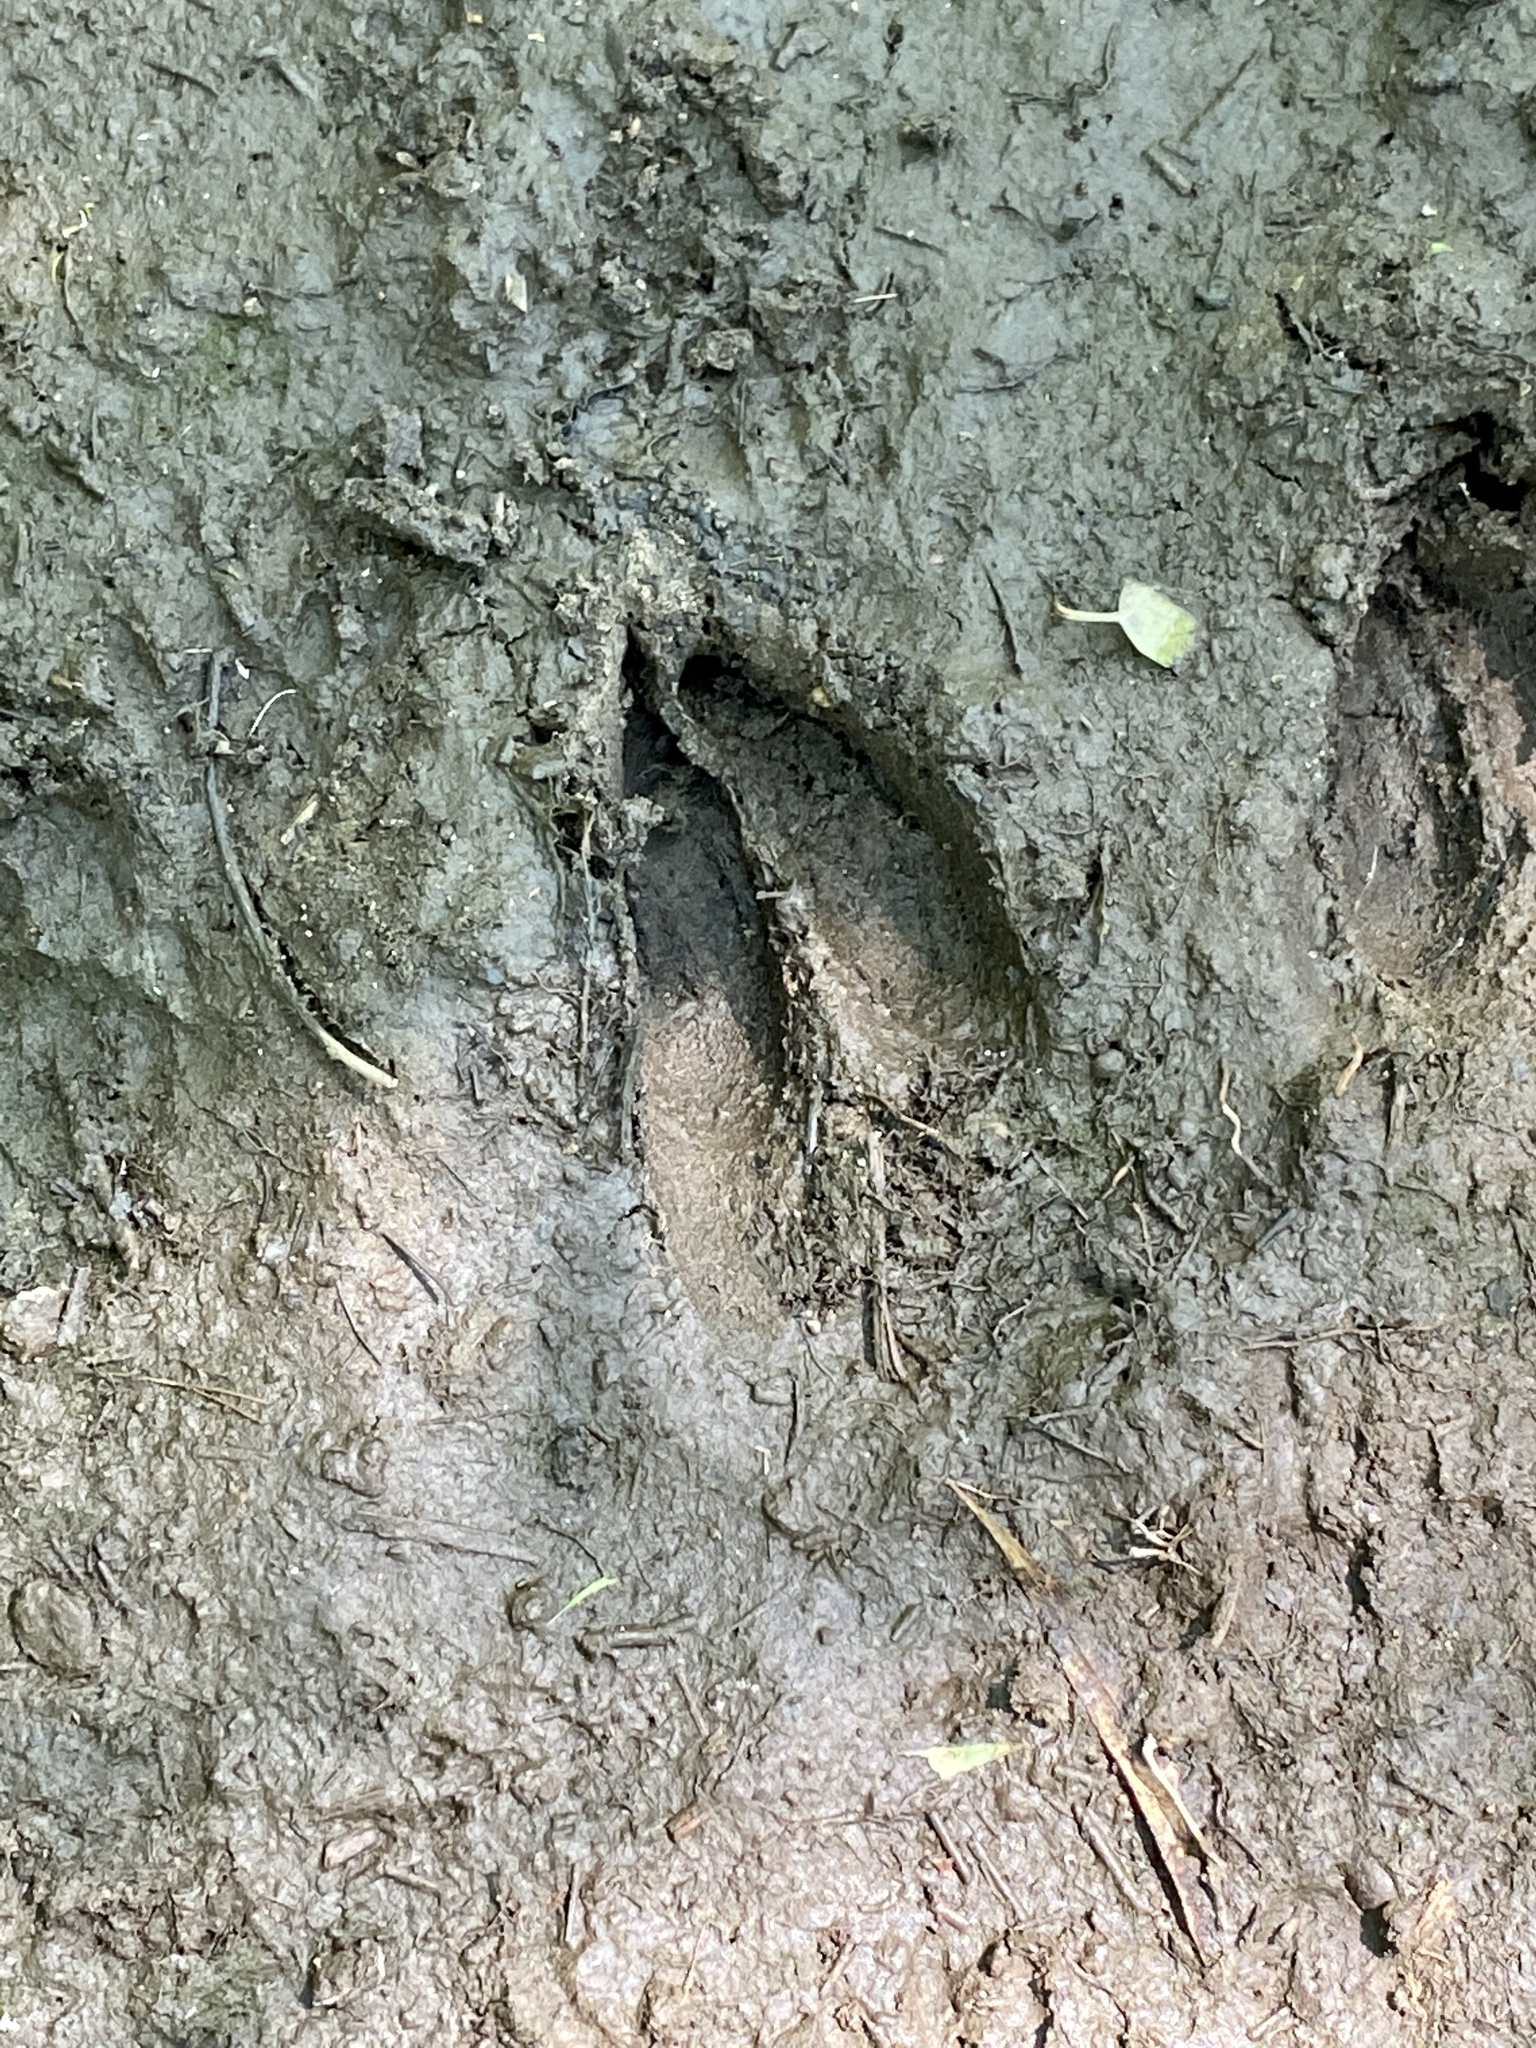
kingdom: Animalia
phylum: Chordata
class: Mammalia
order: Artiodactyla
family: Cervidae
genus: Odocoileus
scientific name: Odocoileus virginianus
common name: White-tailed deer
